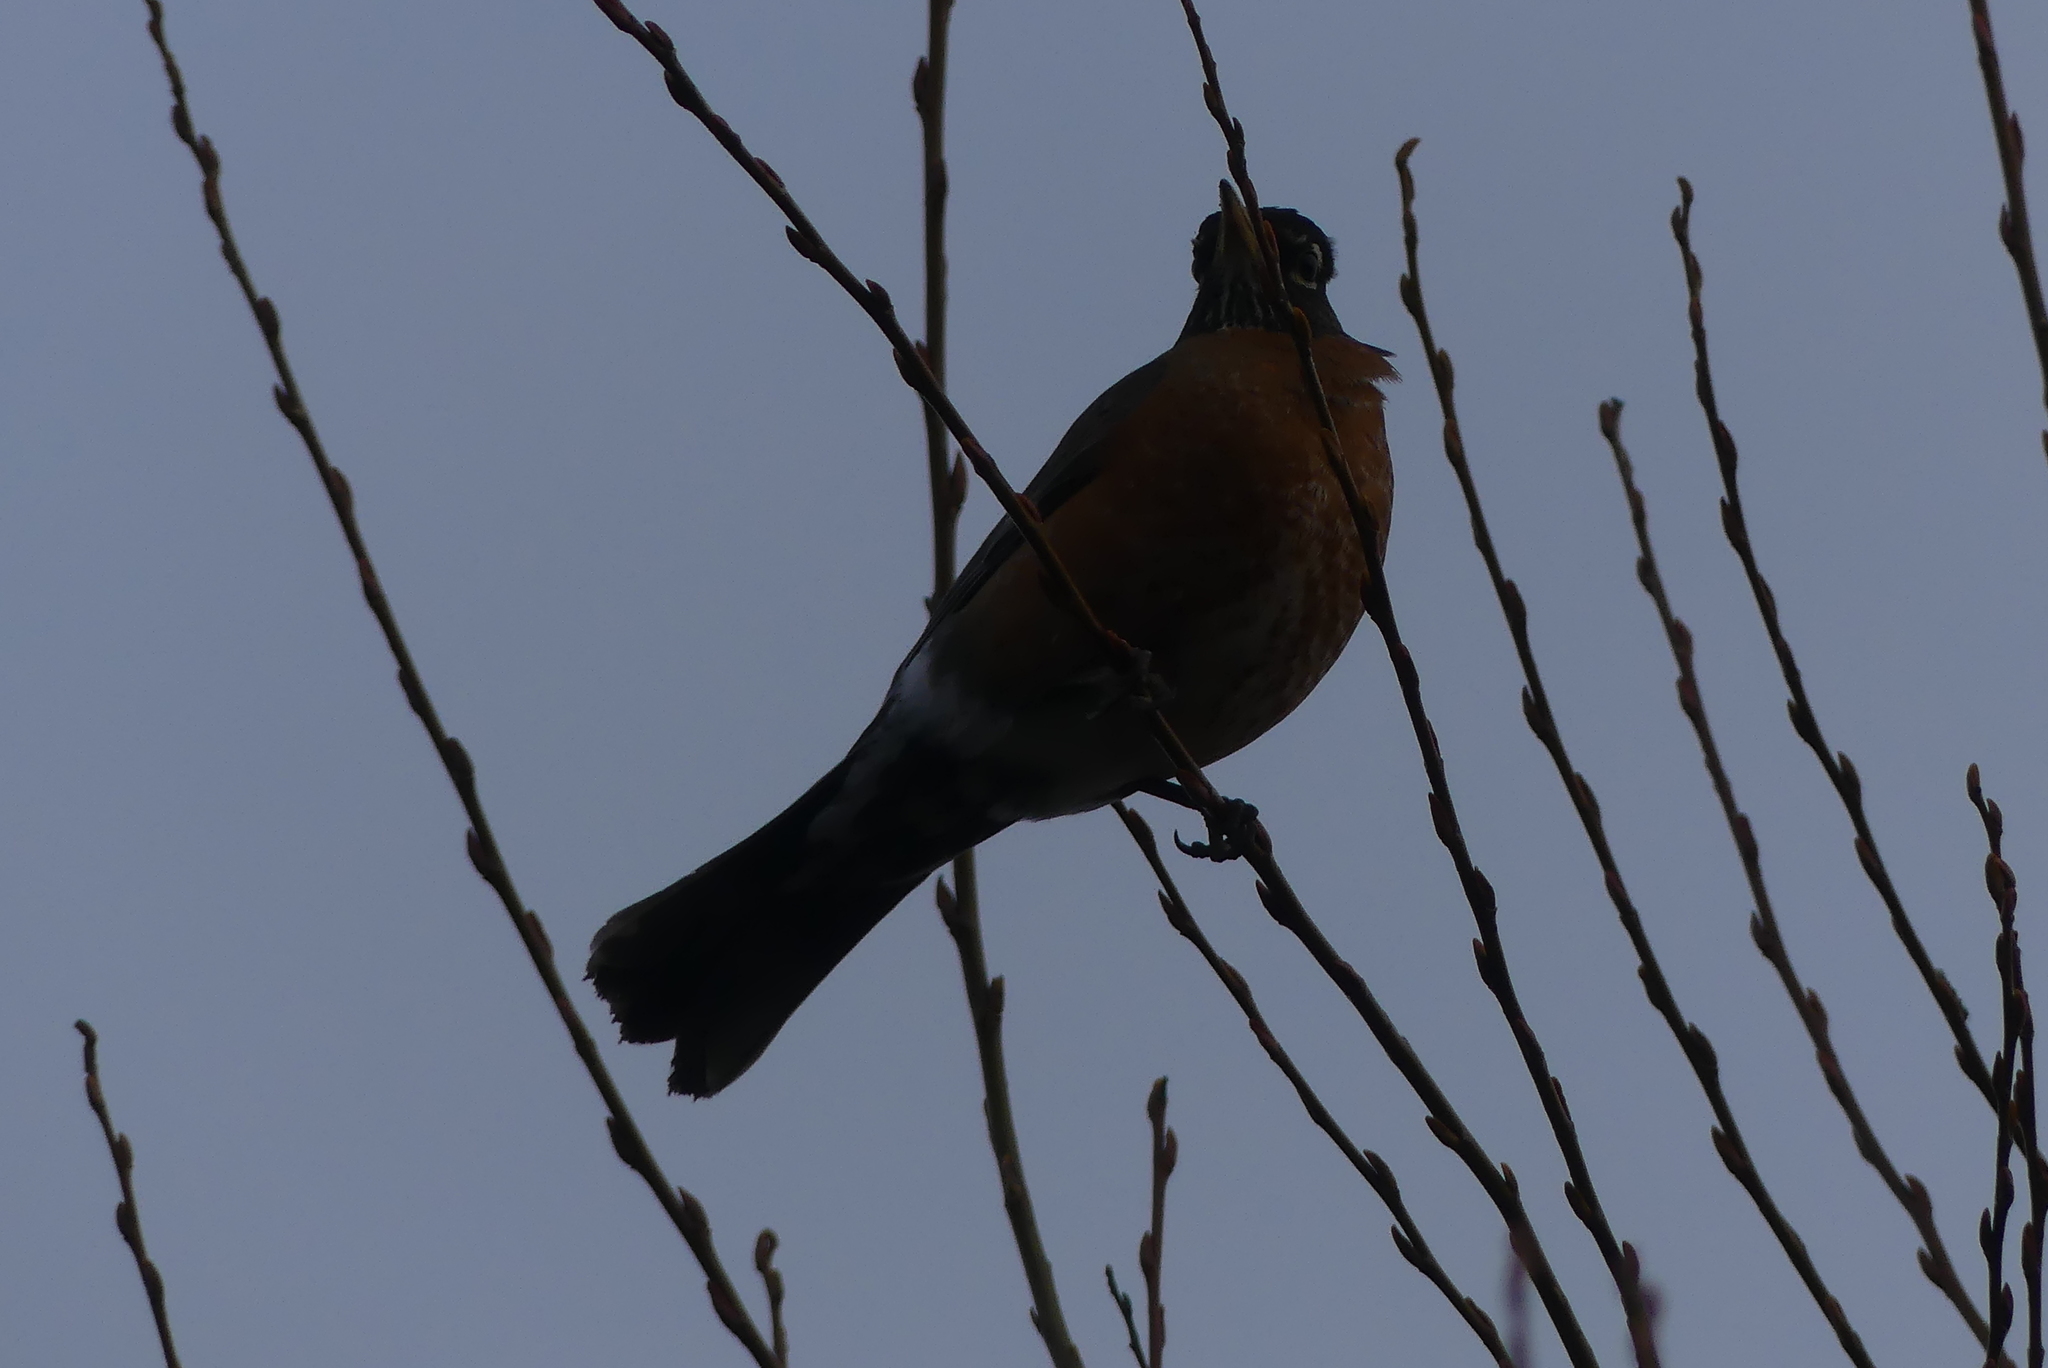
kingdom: Animalia
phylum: Chordata
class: Aves
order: Passeriformes
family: Turdidae
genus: Turdus
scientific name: Turdus migratorius
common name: American robin
